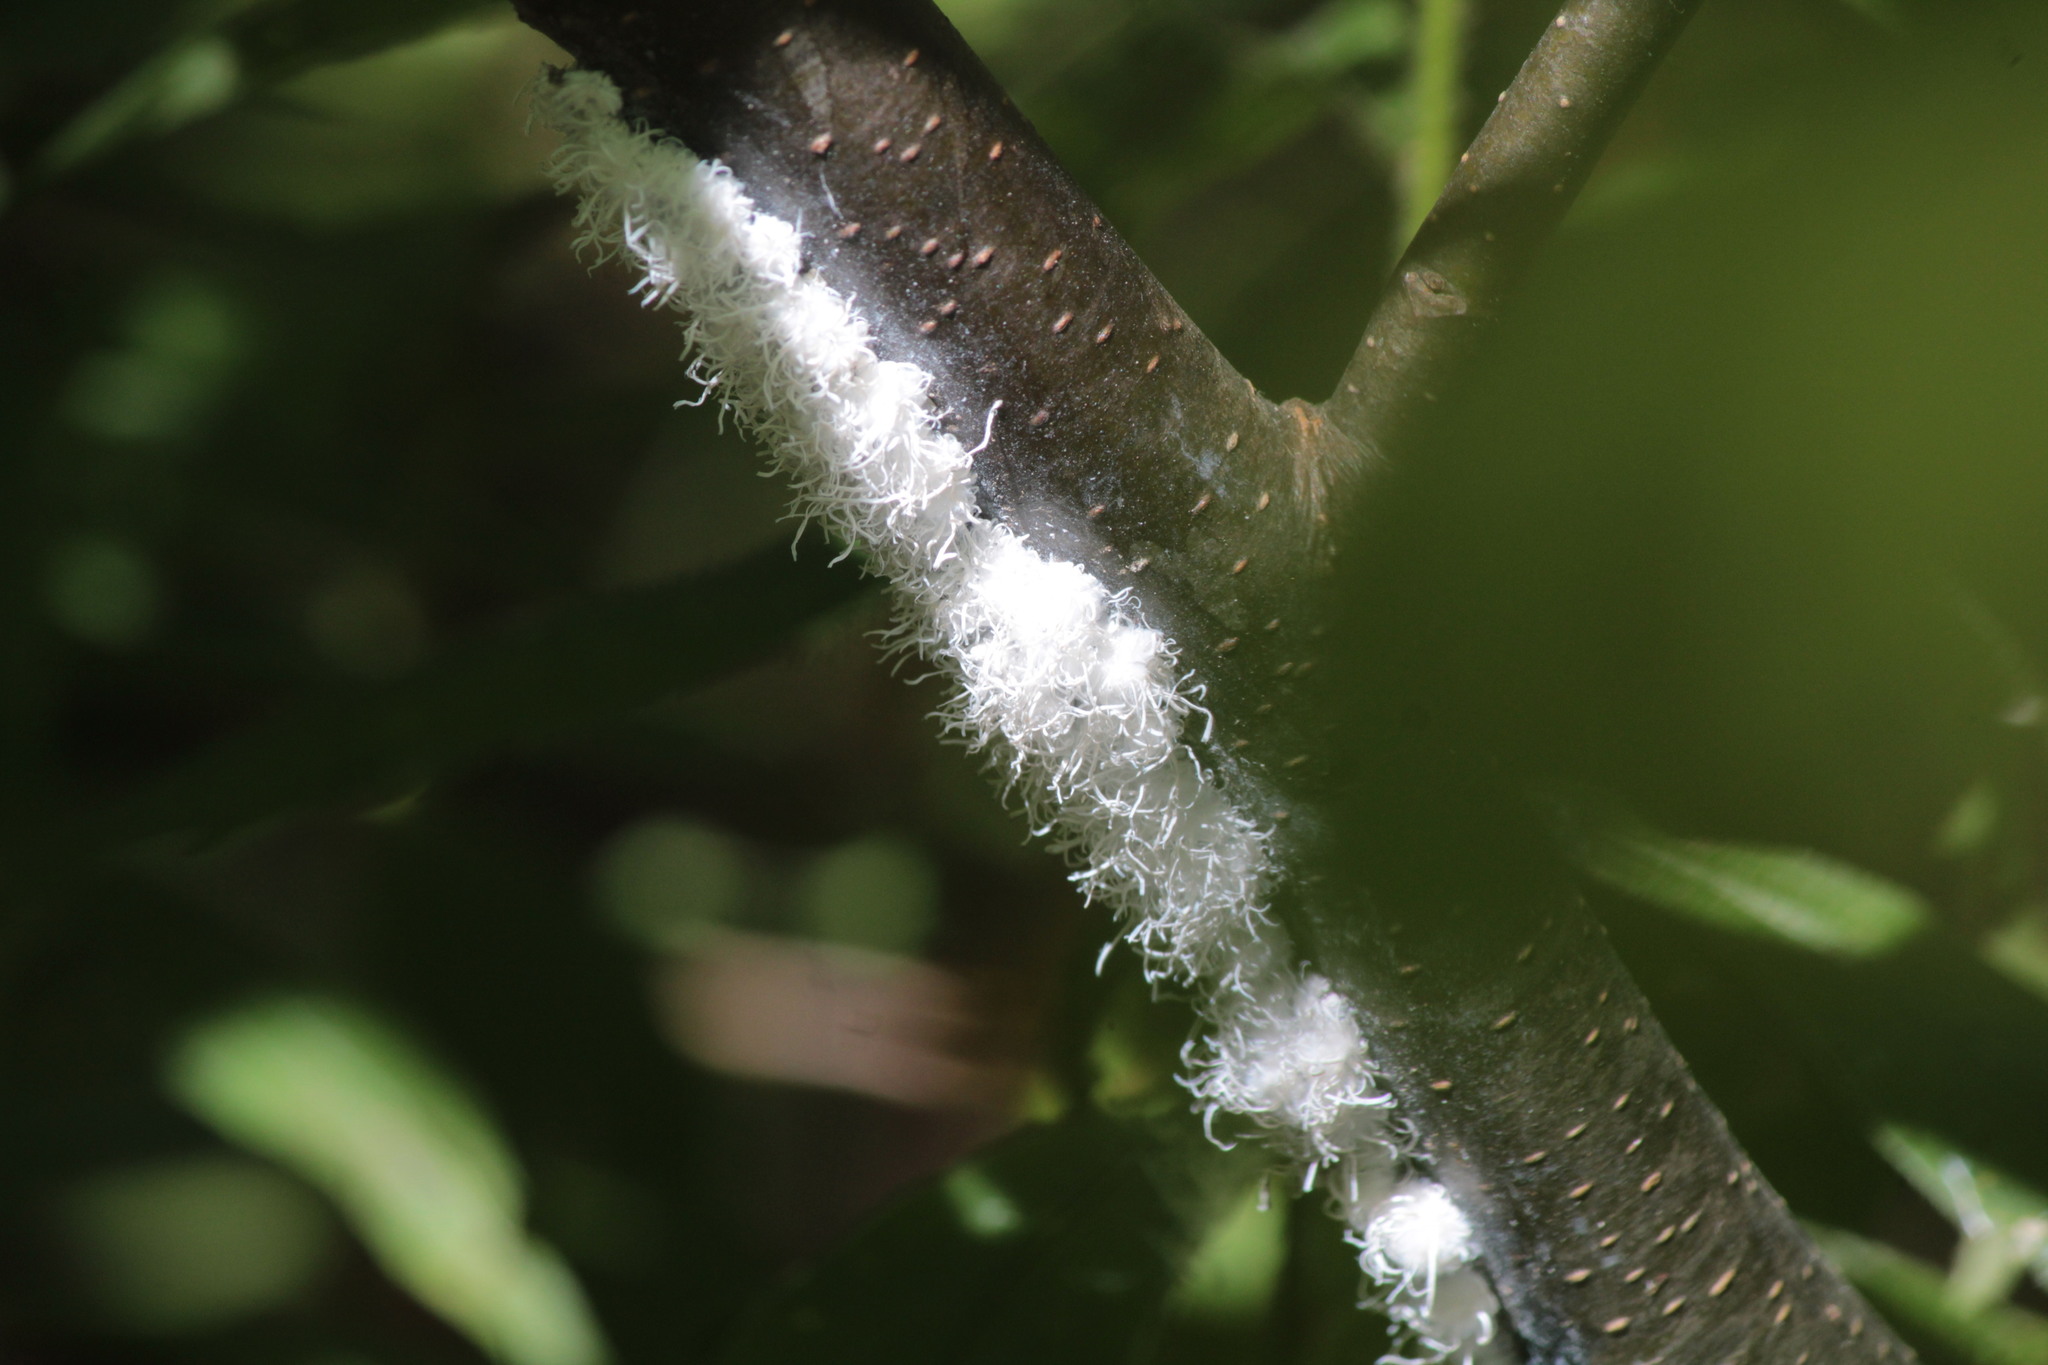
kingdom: Animalia
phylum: Arthropoda
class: Insecta
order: Hemiptera
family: Aphididae
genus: Prociphilus
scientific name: Prociphilus tessellatus
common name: Woolly alder aphid
